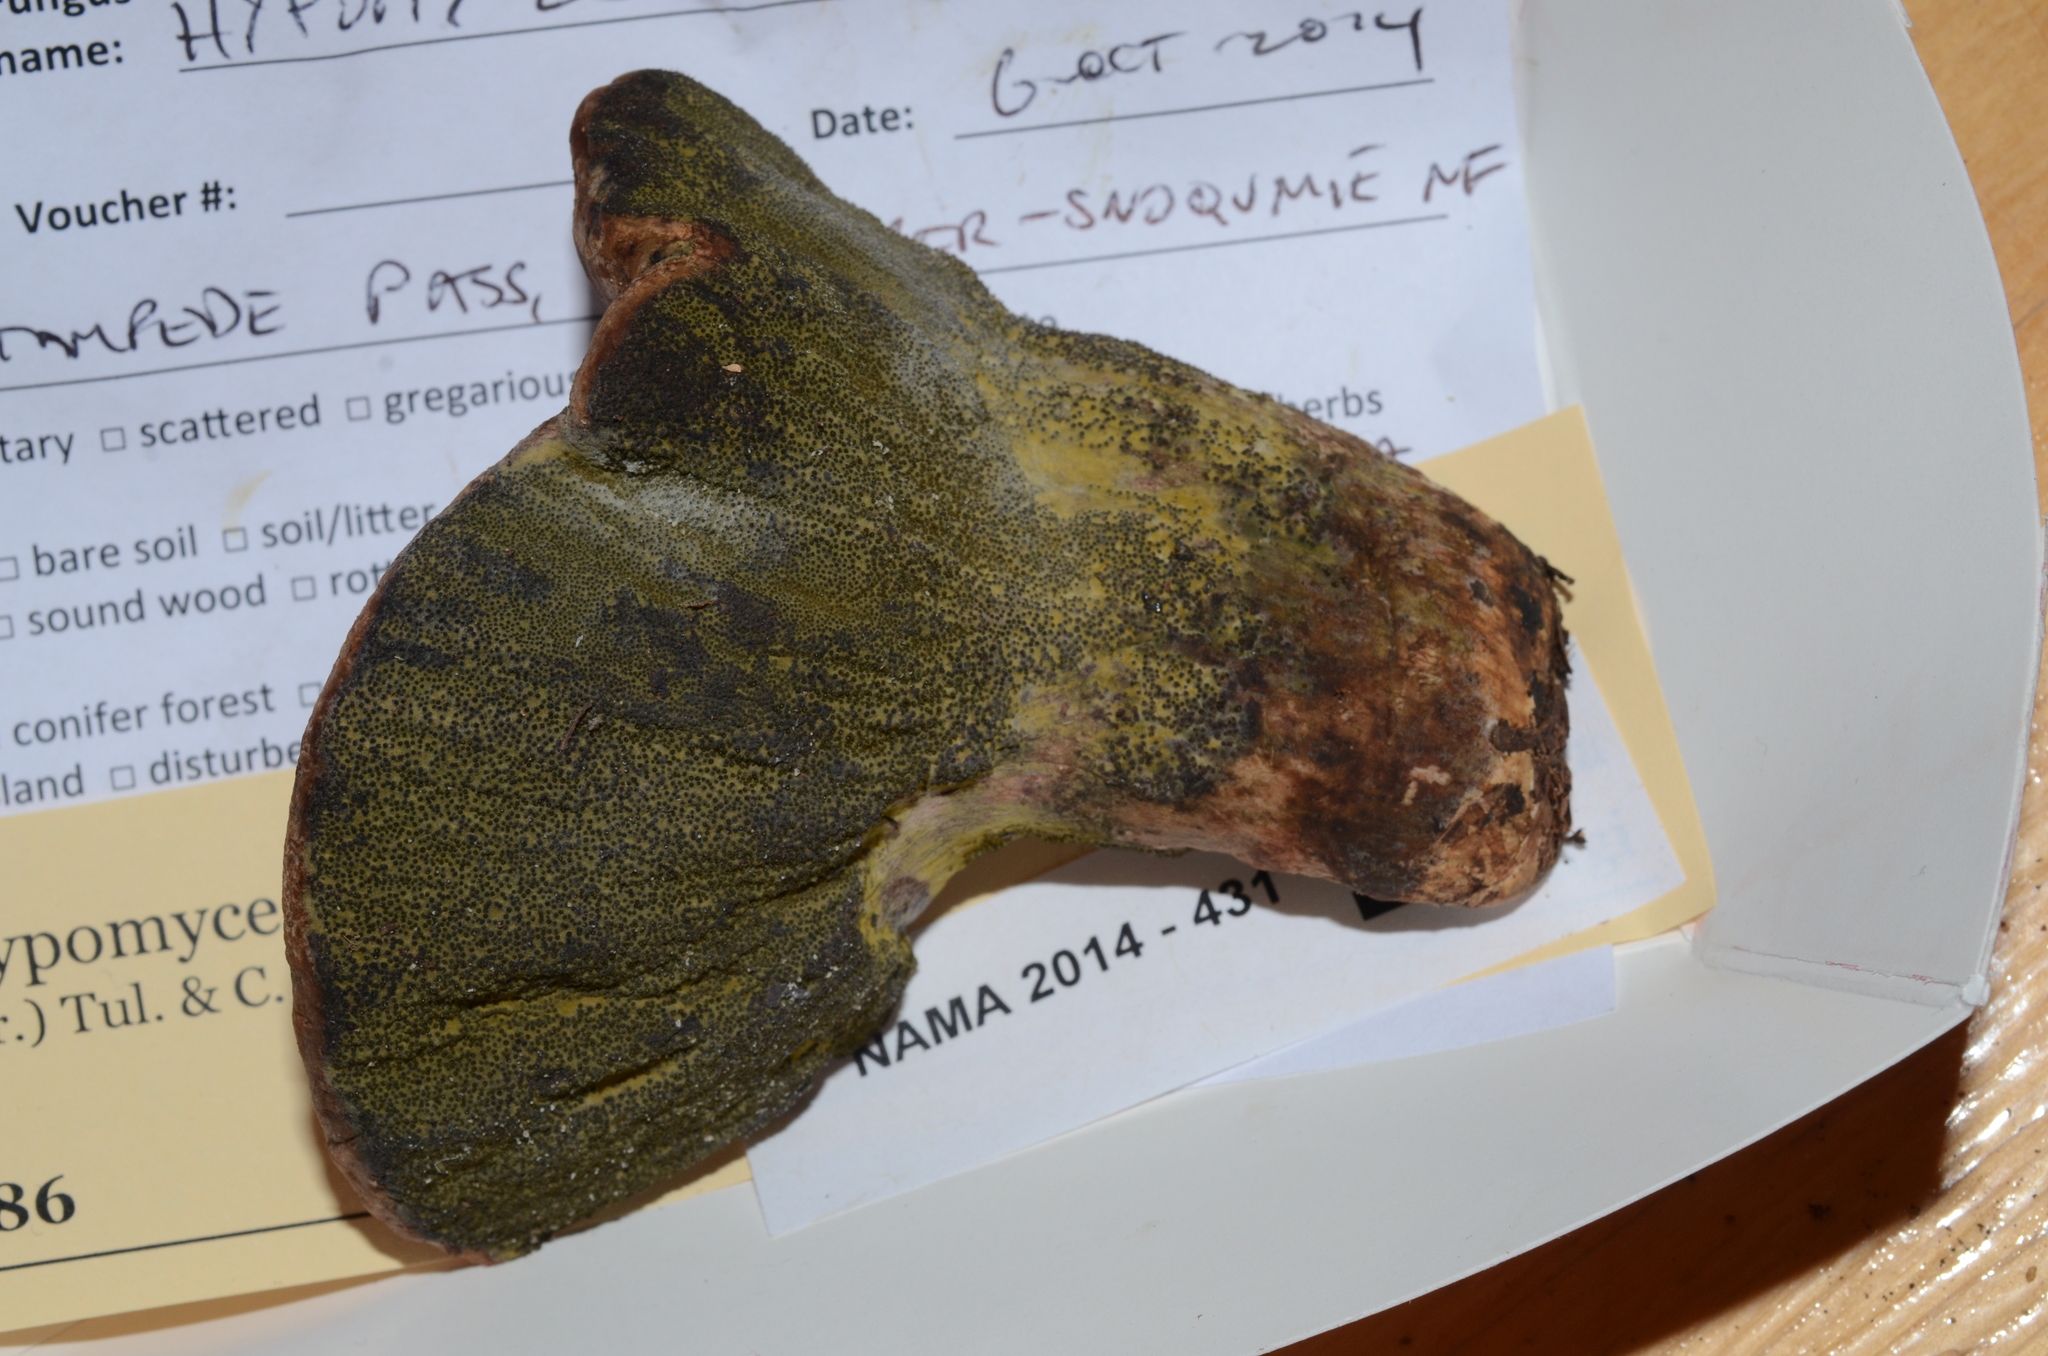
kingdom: Fungi
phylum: Ascomycota
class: Sordariomycetes
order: Hypocreales
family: Hypocreaceae
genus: Hypomyces
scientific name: Hypomyces luteovirens
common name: Yellow-green russula mold
